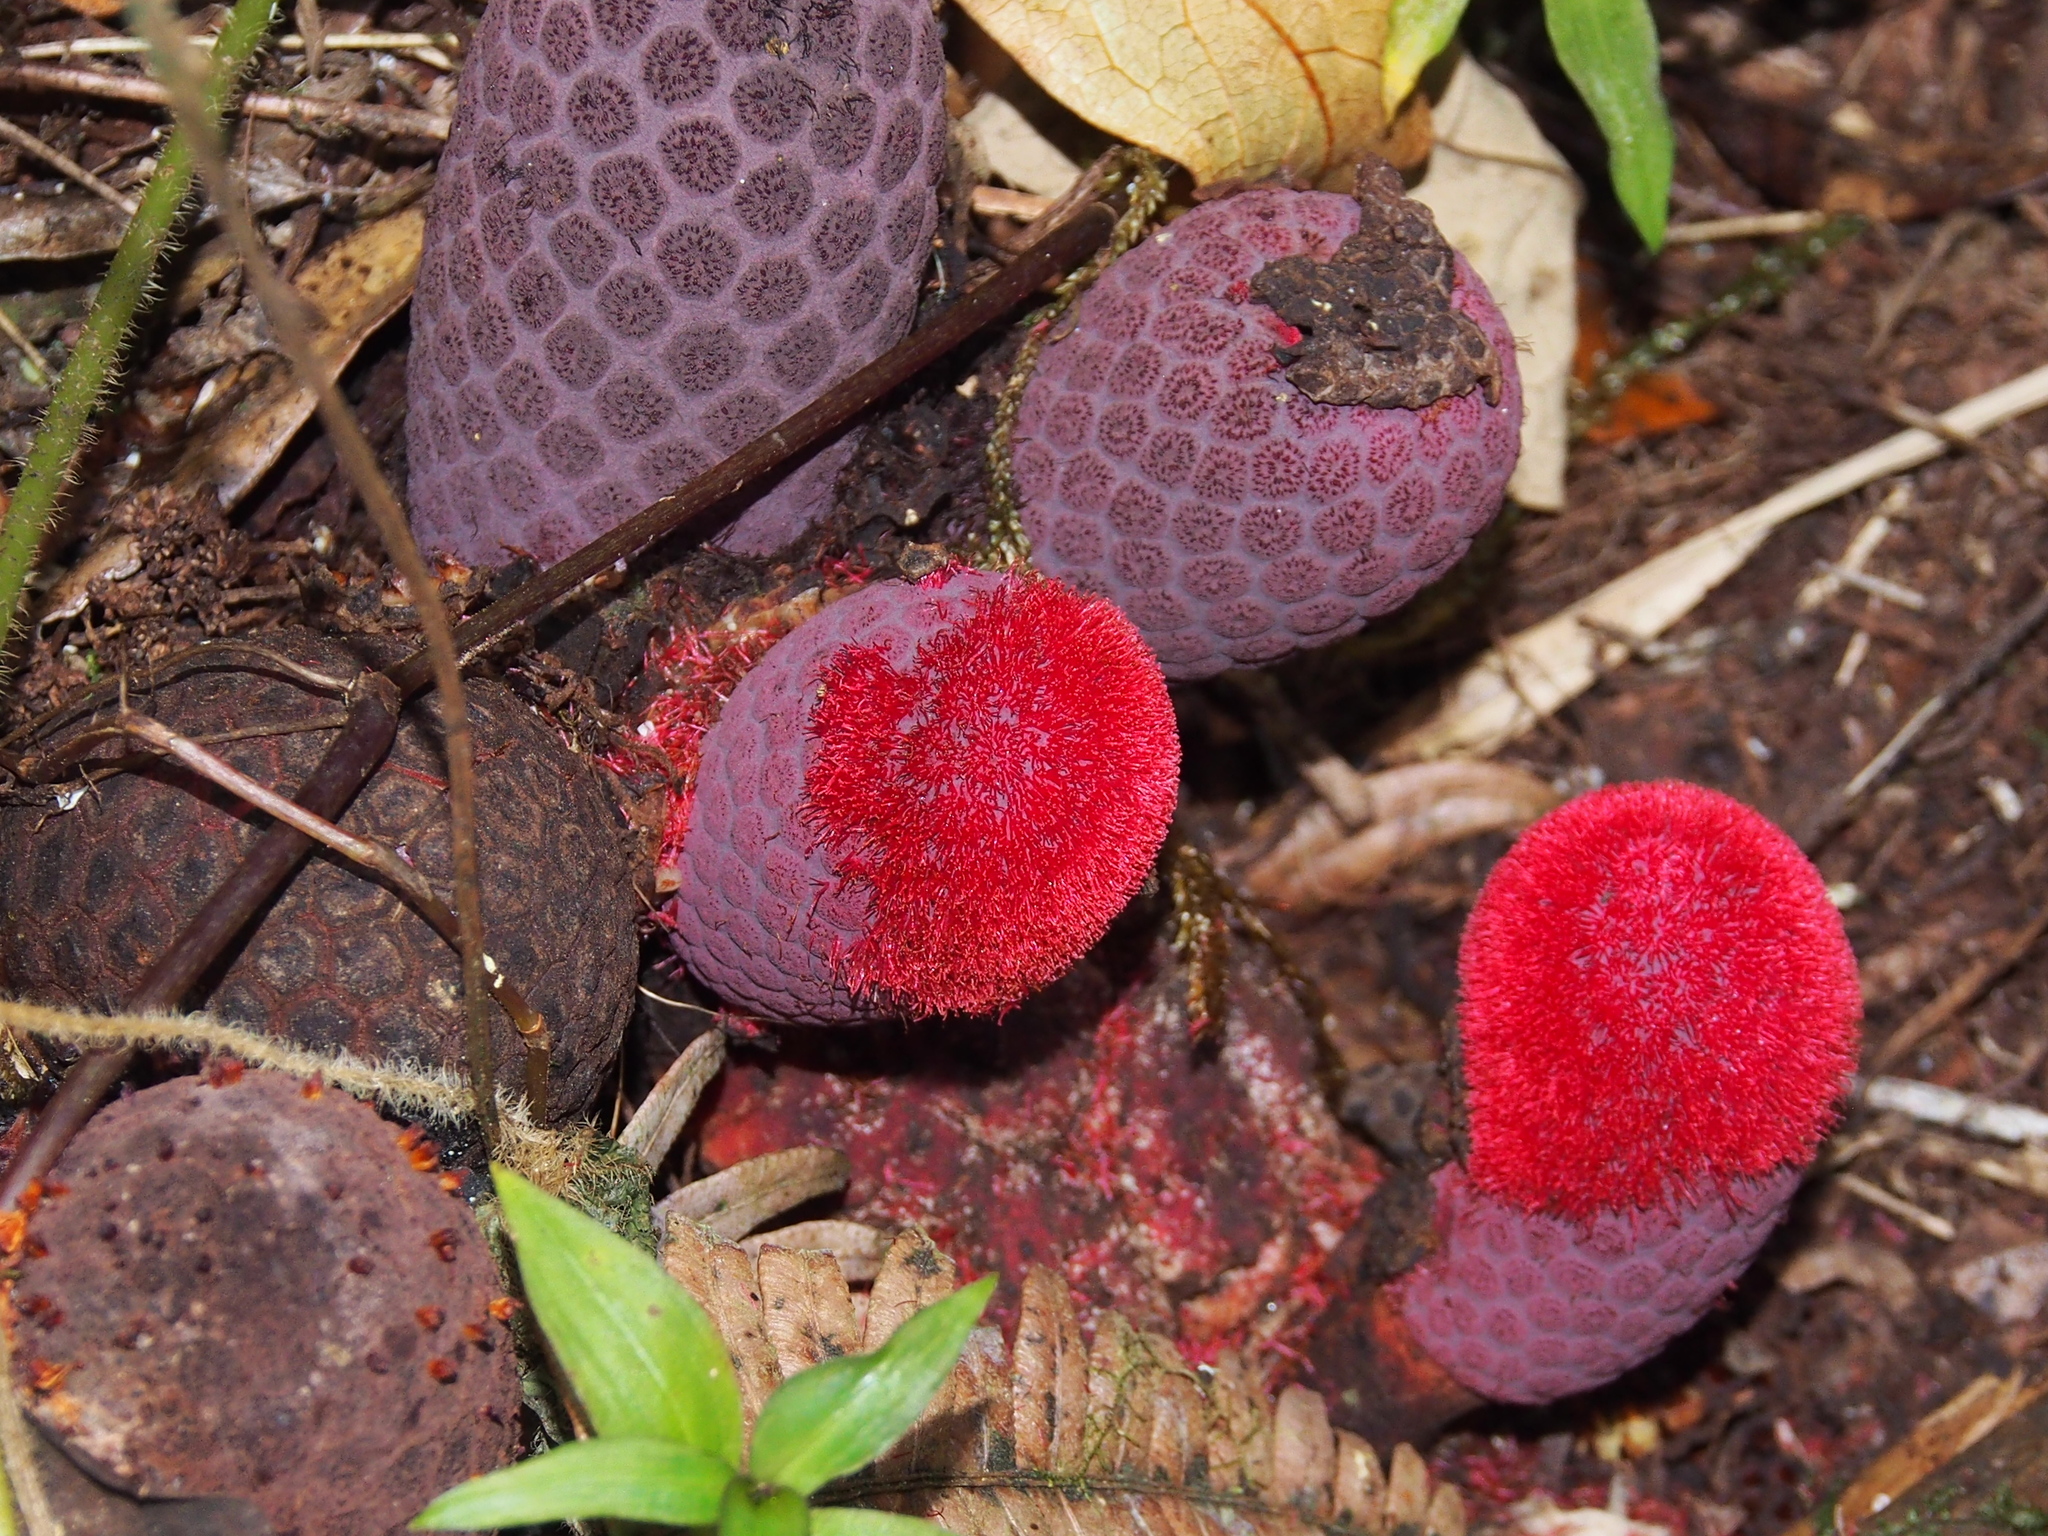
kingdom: Plantae
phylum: Tracheophyta
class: Magnoliopsida
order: Santalales
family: Balanophoraceae
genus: Corynaea
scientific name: Corynaea crassa
